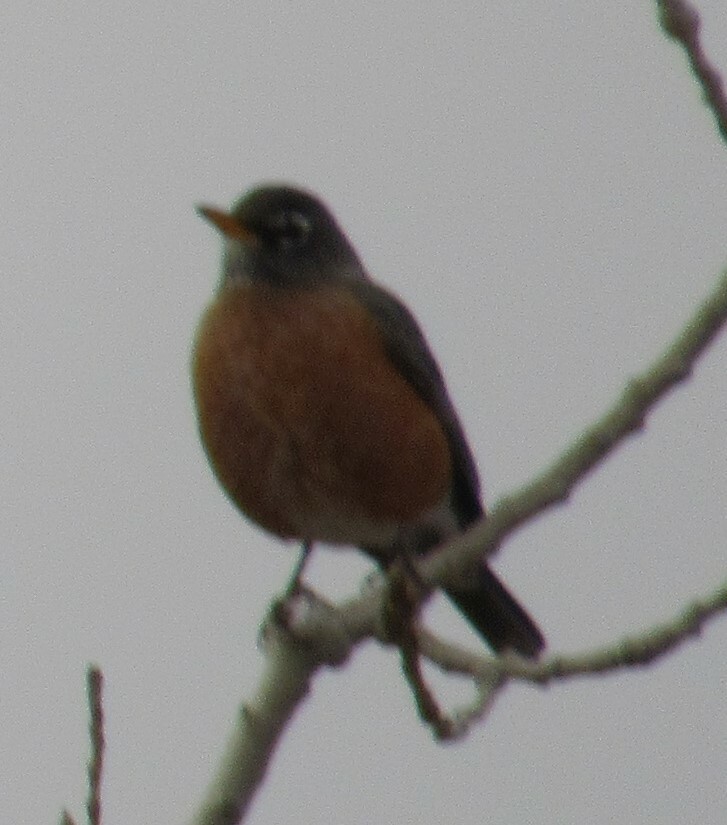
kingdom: Animalia
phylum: Chordata
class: Aves
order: Passeriformes
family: Turdidae
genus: Turdus
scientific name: Turdus migratorius
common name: American robin
